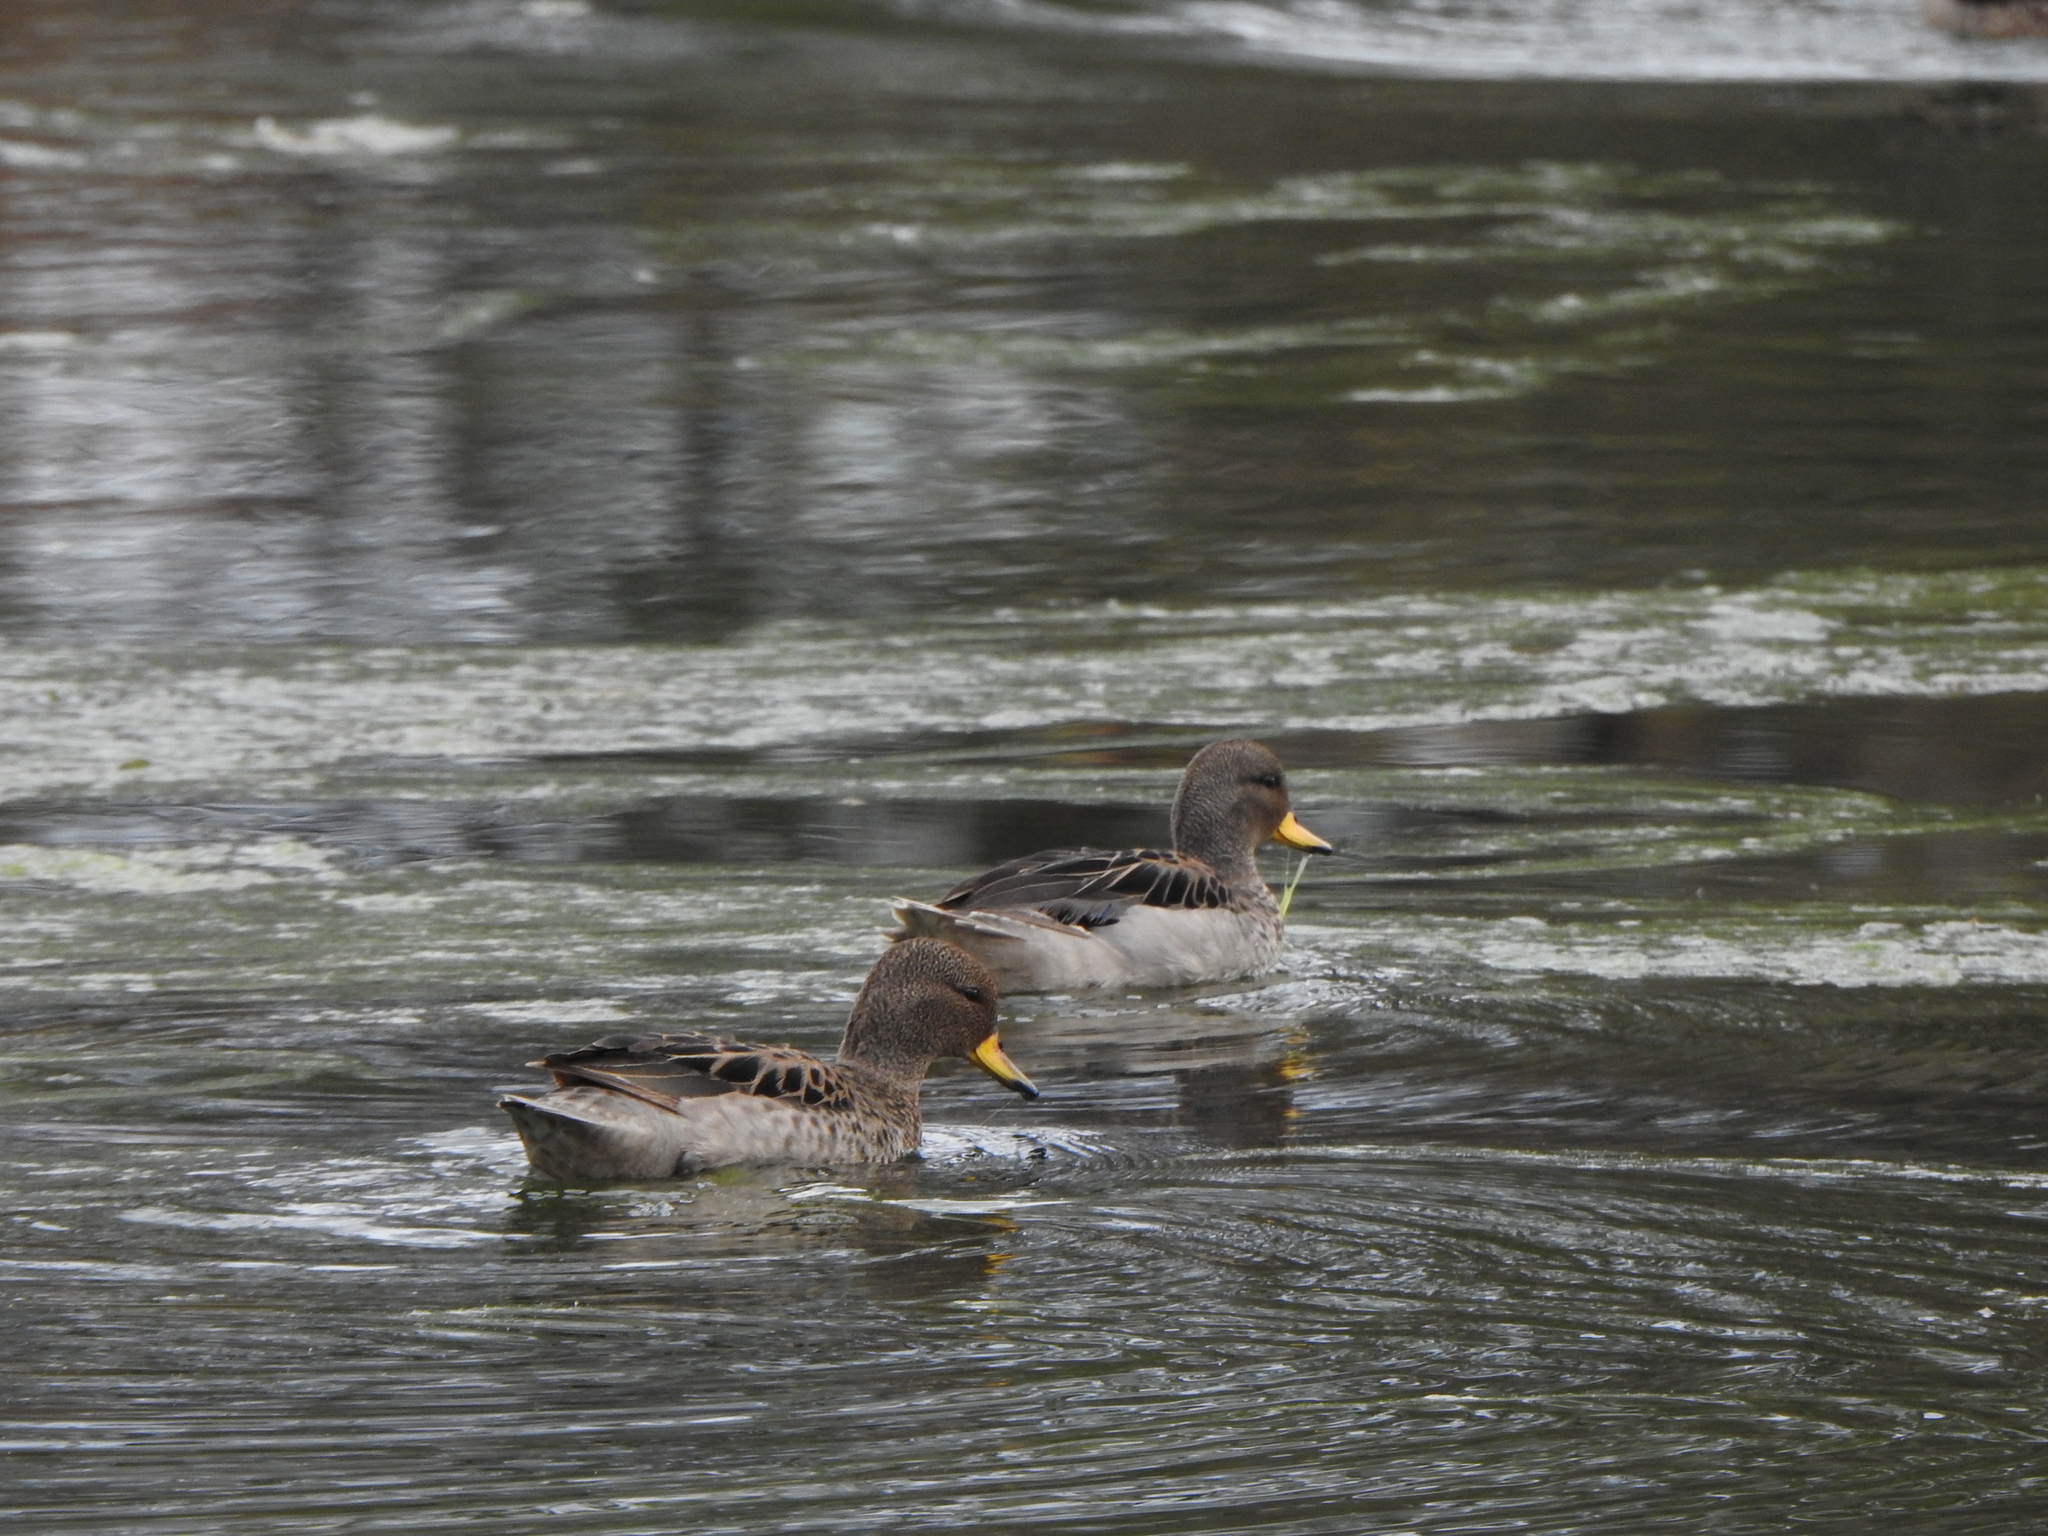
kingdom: Animalia
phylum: Chordata
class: Aves
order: Anseriformes
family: Anatidae
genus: Anas
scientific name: Anas flavirostris
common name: Yellow-billed teal
